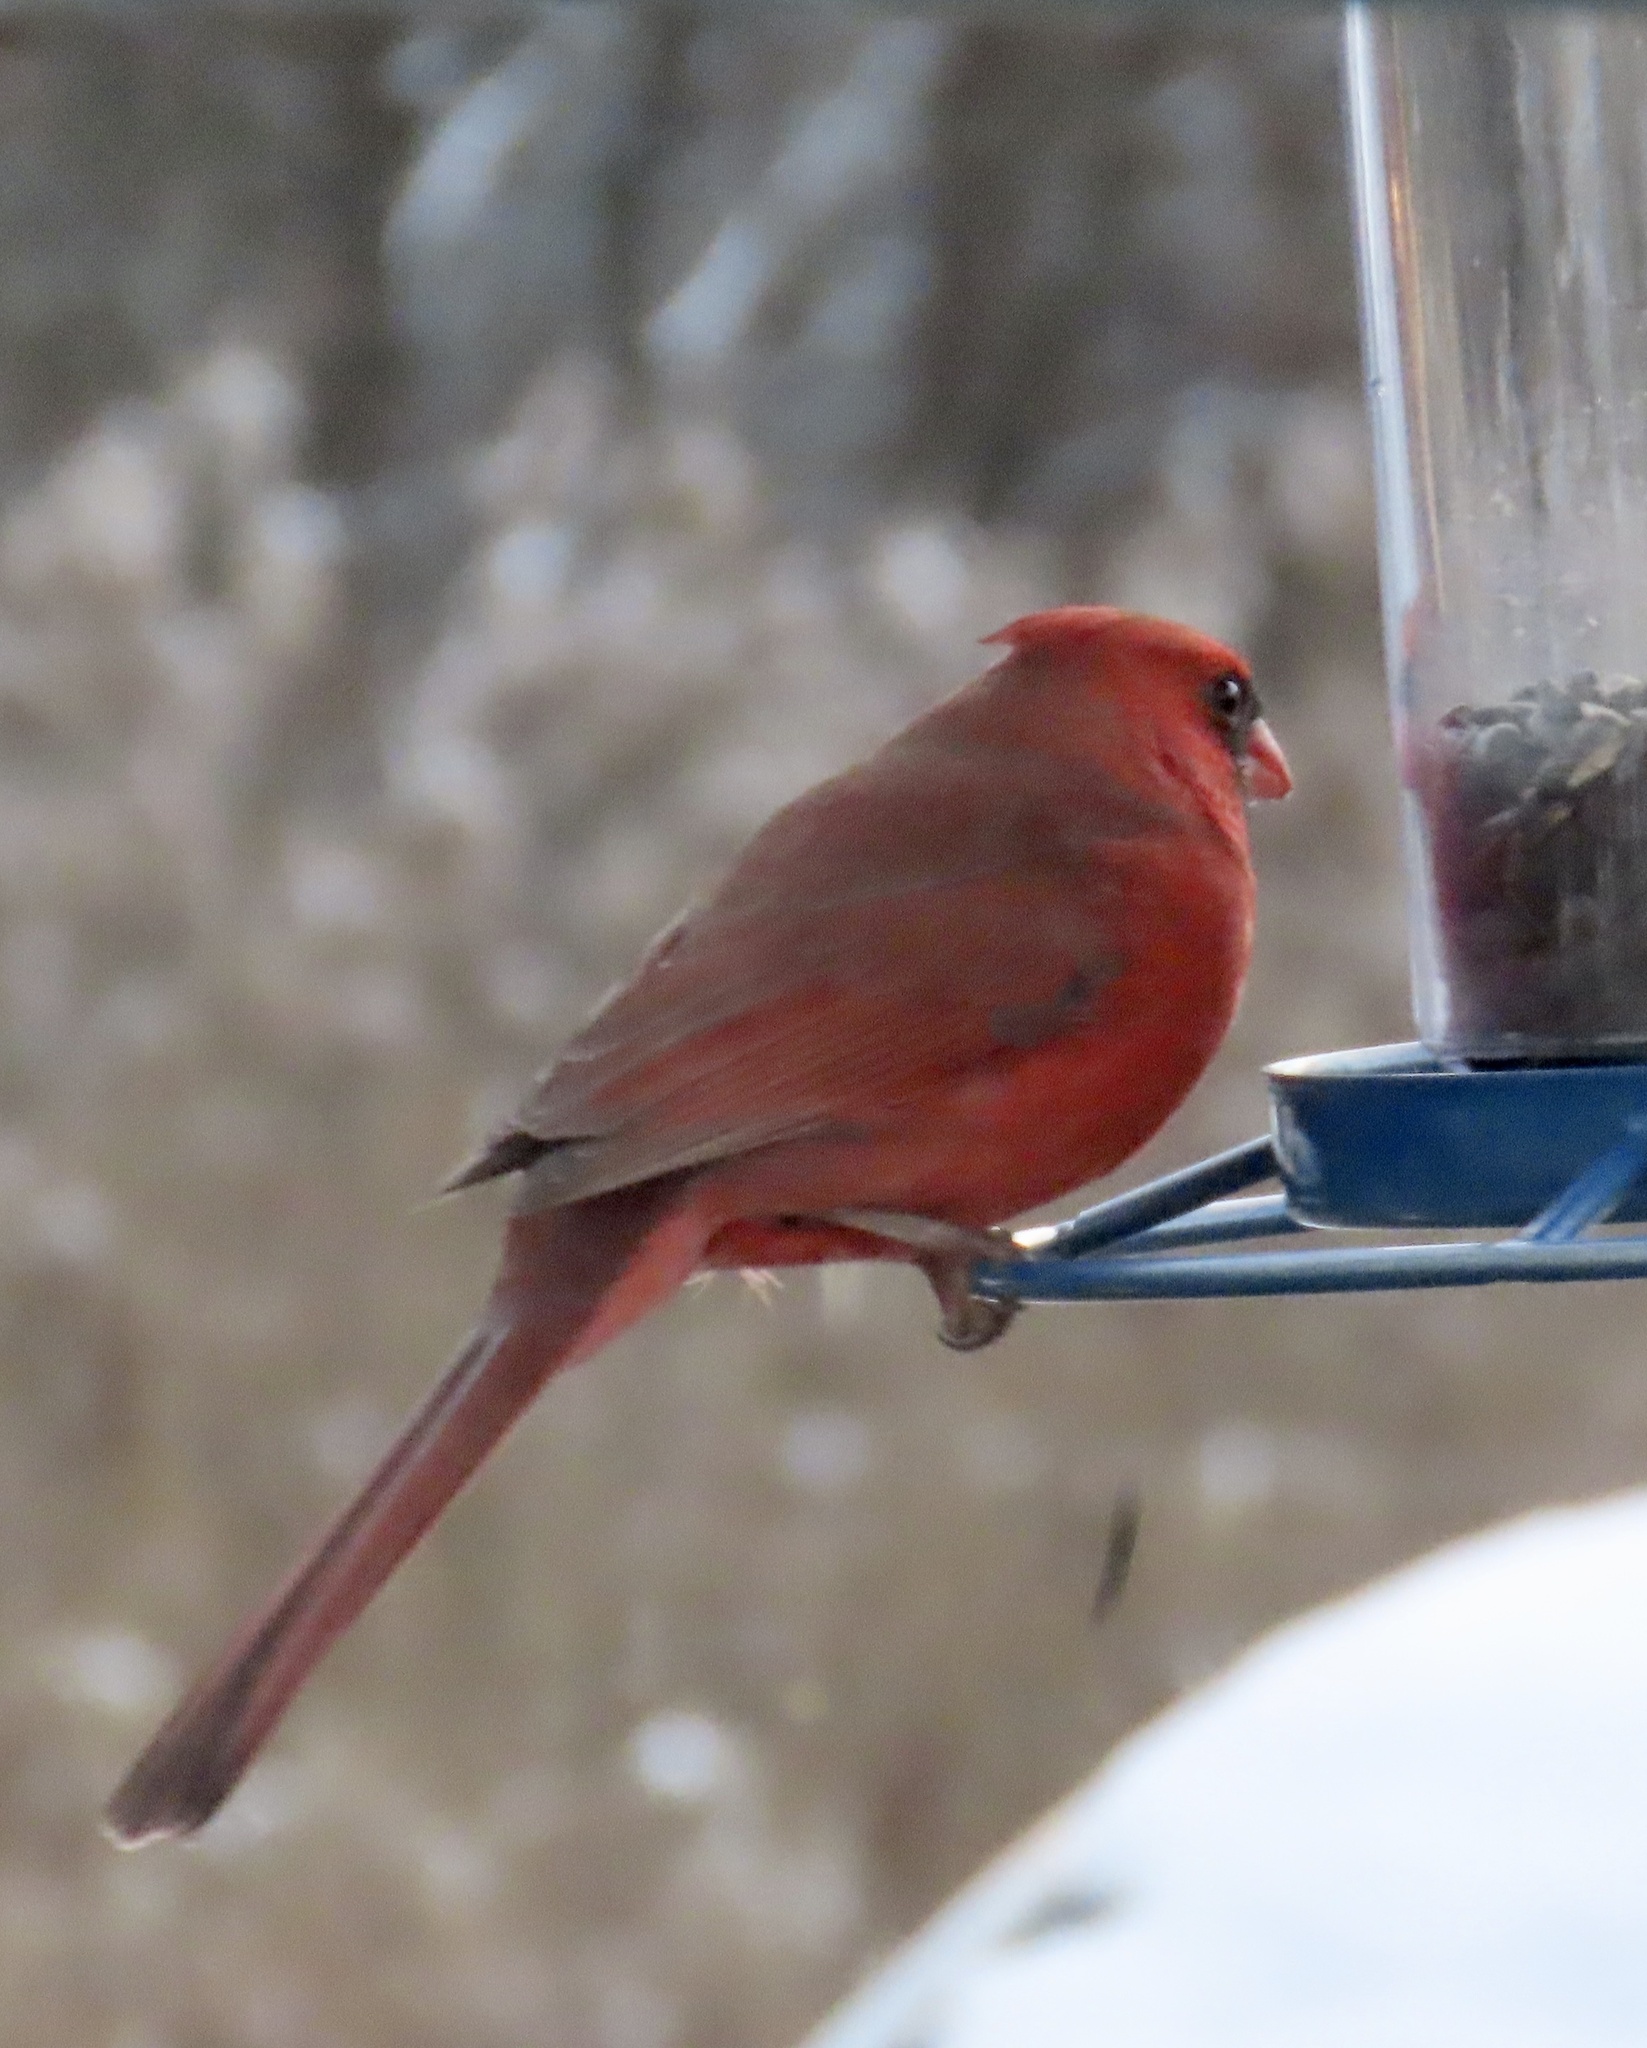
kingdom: Animalia
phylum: Chordata
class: Aves
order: Passeriformes
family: Cardinalidae
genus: Cardinalis
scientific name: Cardinalis cardinalis
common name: Northern cardinal
